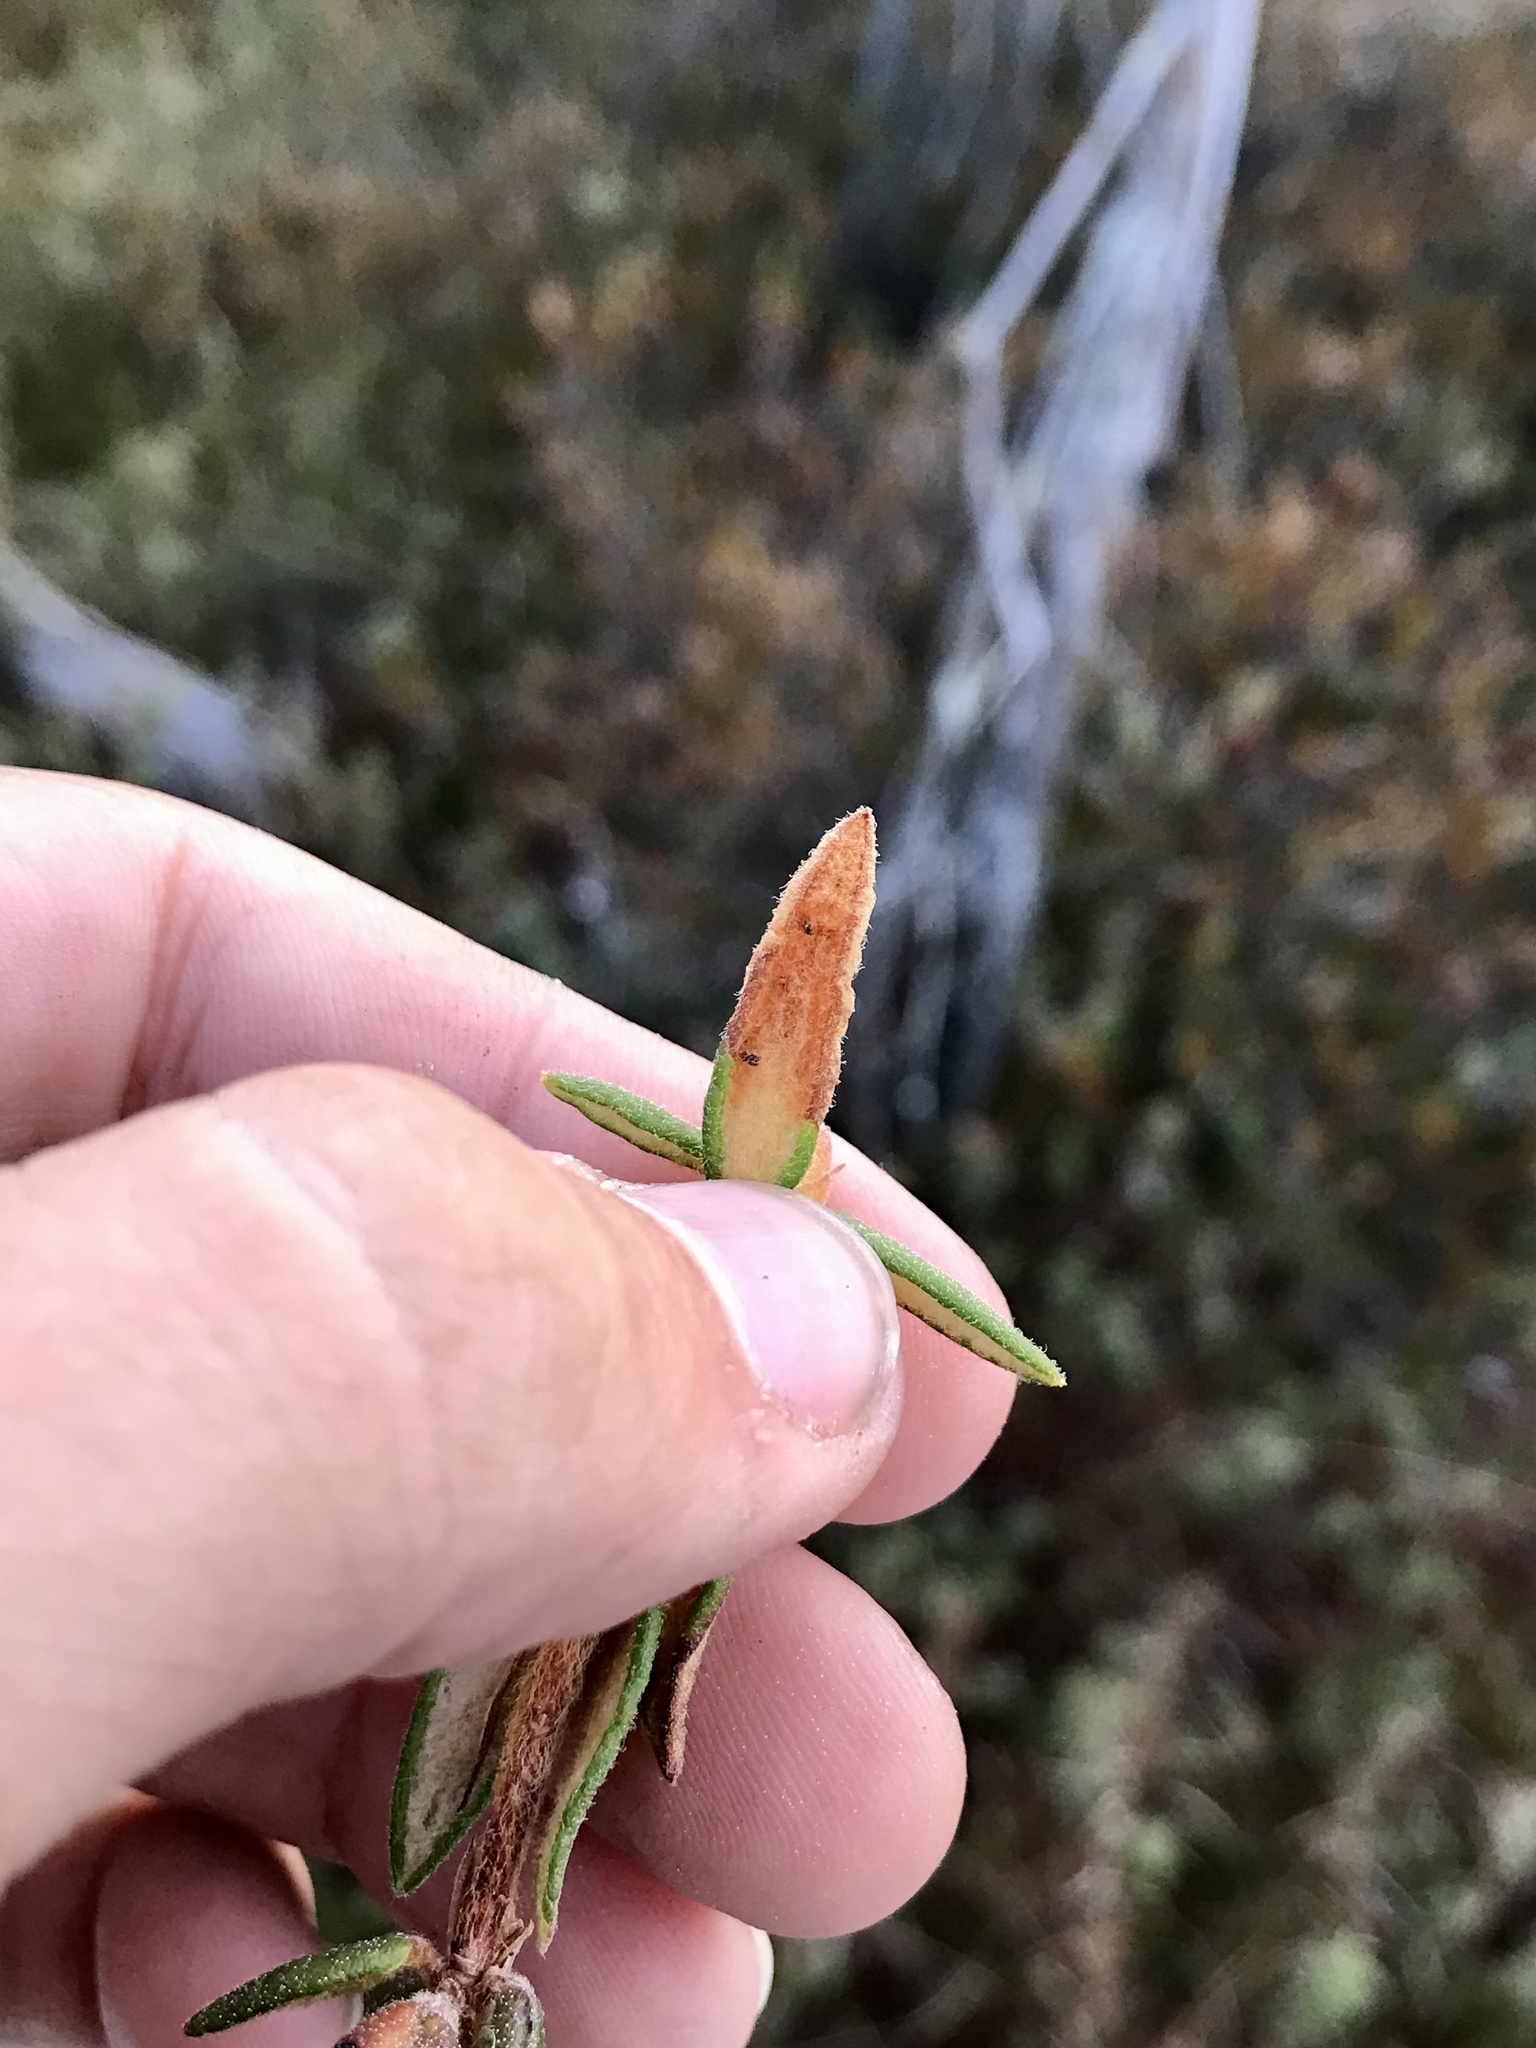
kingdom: Animalia
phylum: Arthropoda
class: Insecta
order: Lepidoptera
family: Gracillariidae
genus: Phyllonorycter
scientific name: Phyllonorycter ledella
